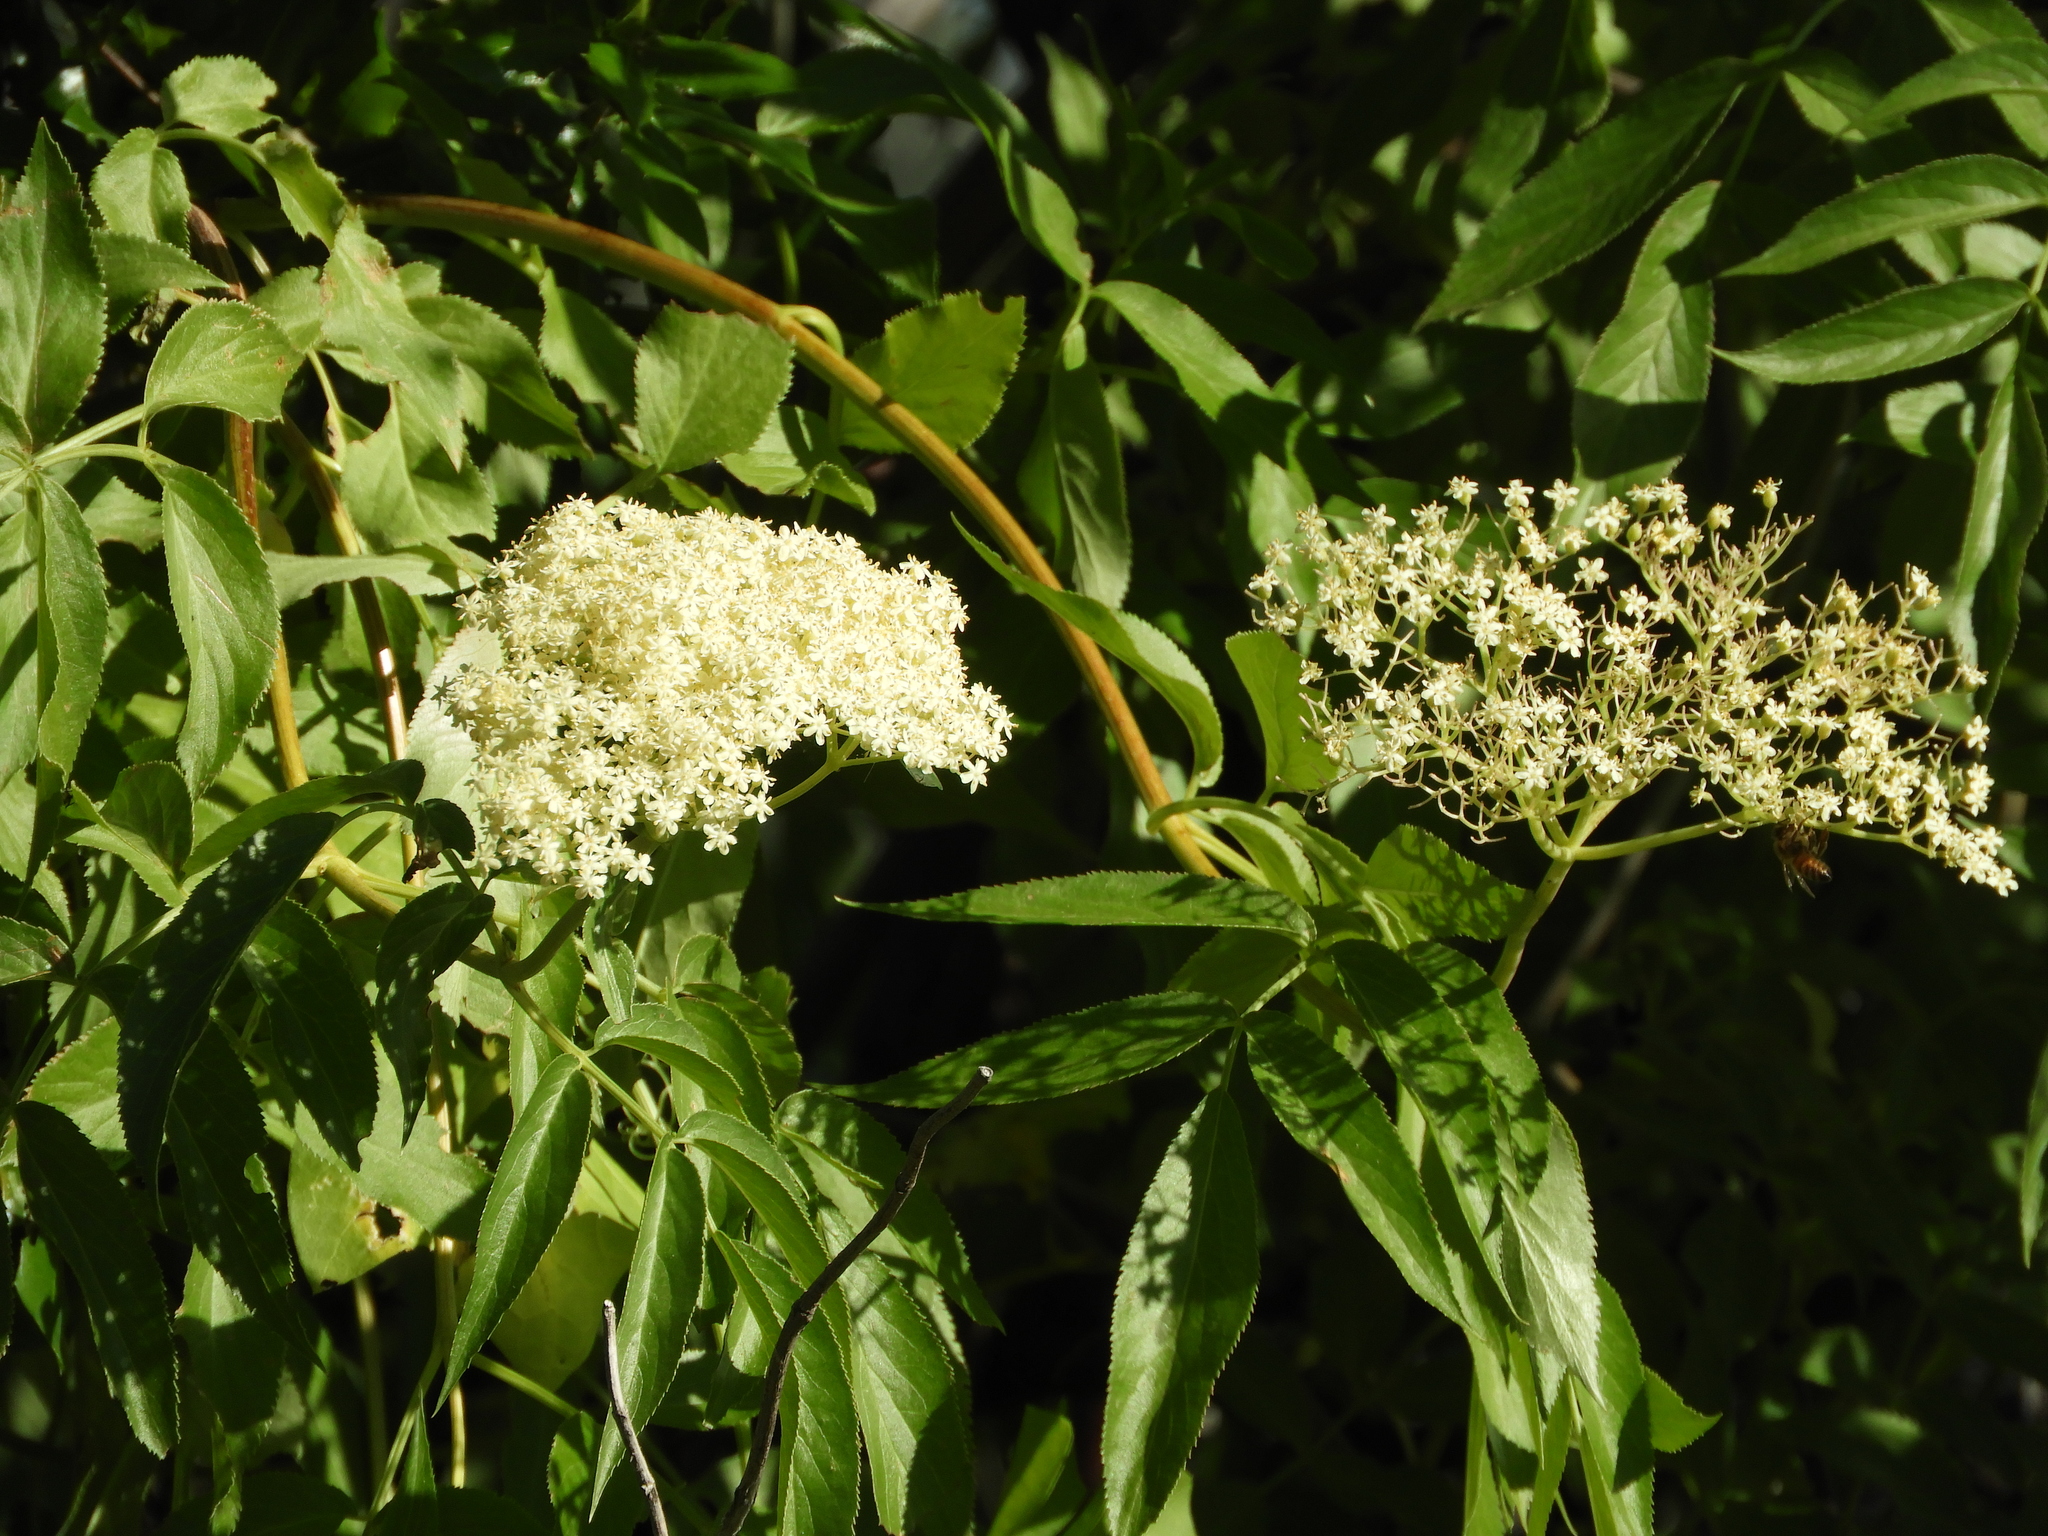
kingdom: Plantae
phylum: Tracheophyta
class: Magnoliopsida
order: Dipsacales
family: Viburnaceae
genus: Sambucus
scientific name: Sambucus cerulea
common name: Blue elder
